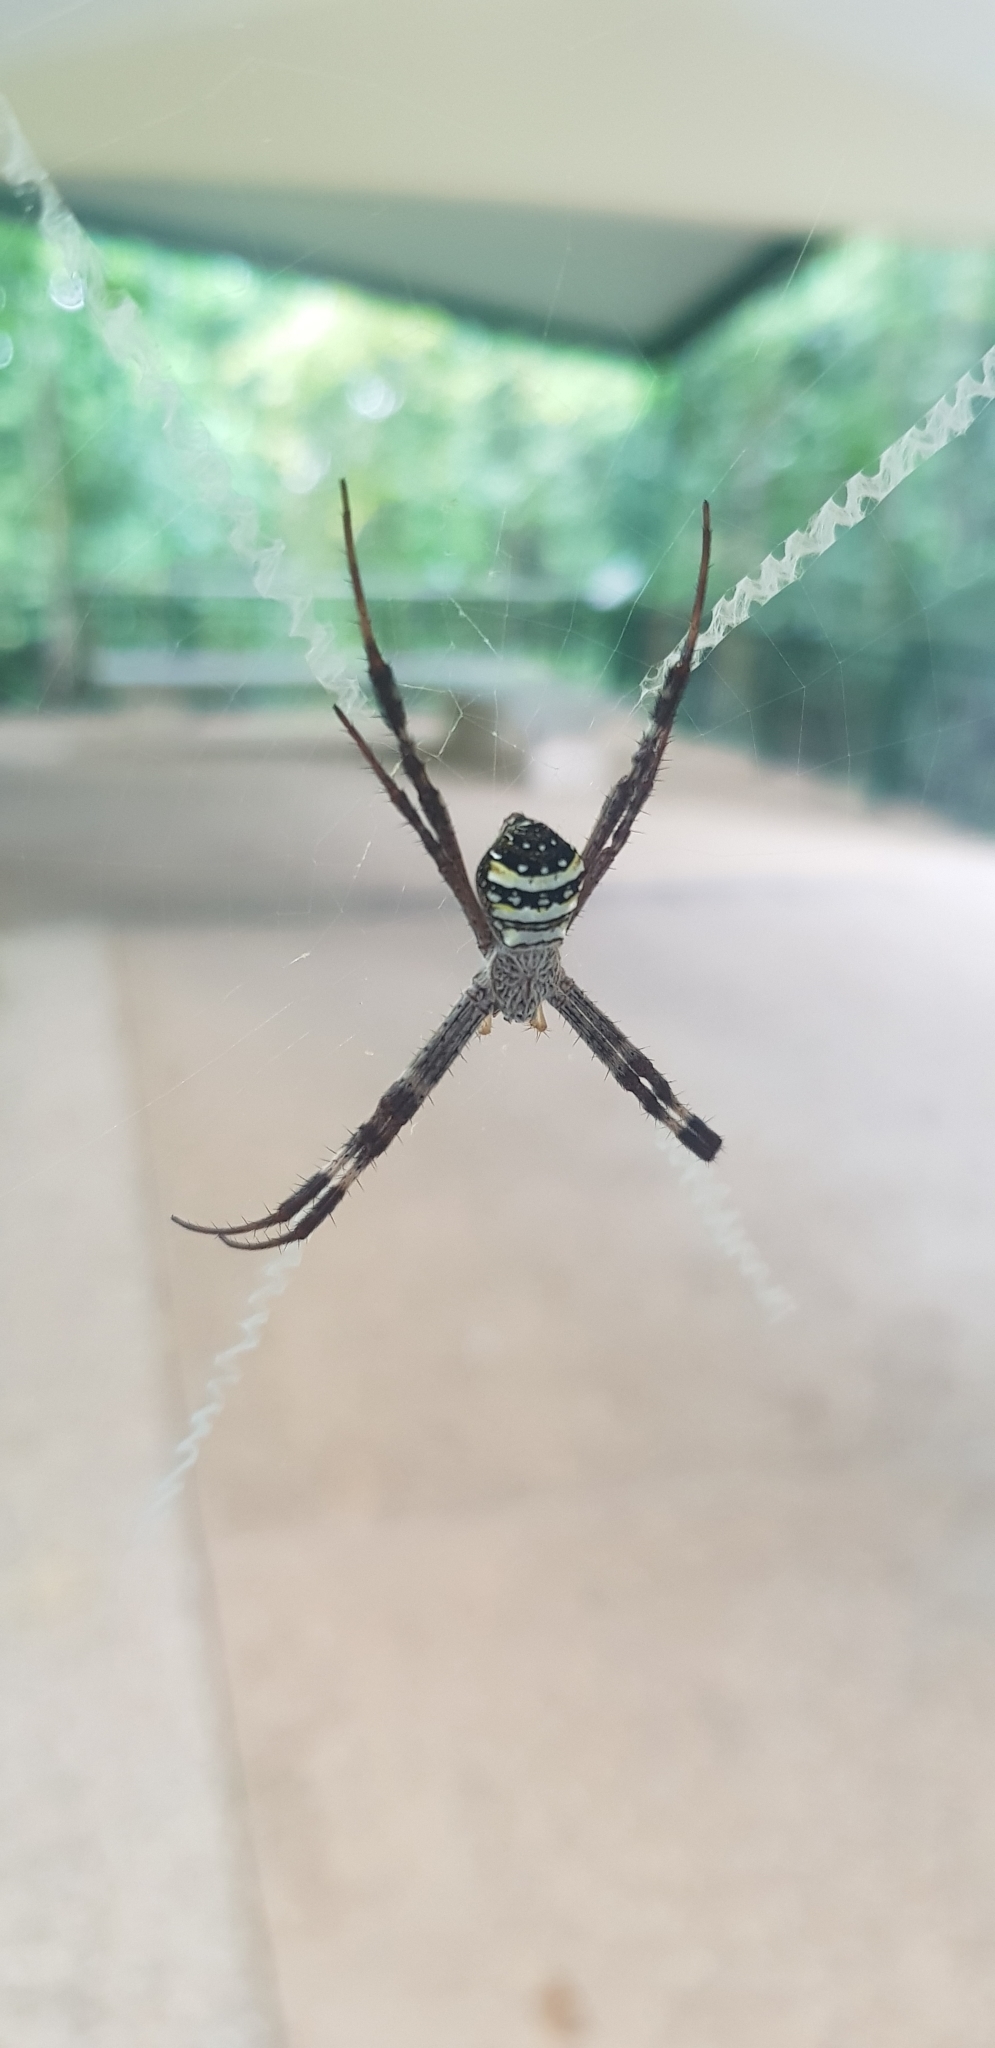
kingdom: Animalia
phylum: Arthropoda
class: Arachnida
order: Araneae
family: Araneidae
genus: Argiope
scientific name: Argiope aetherea
